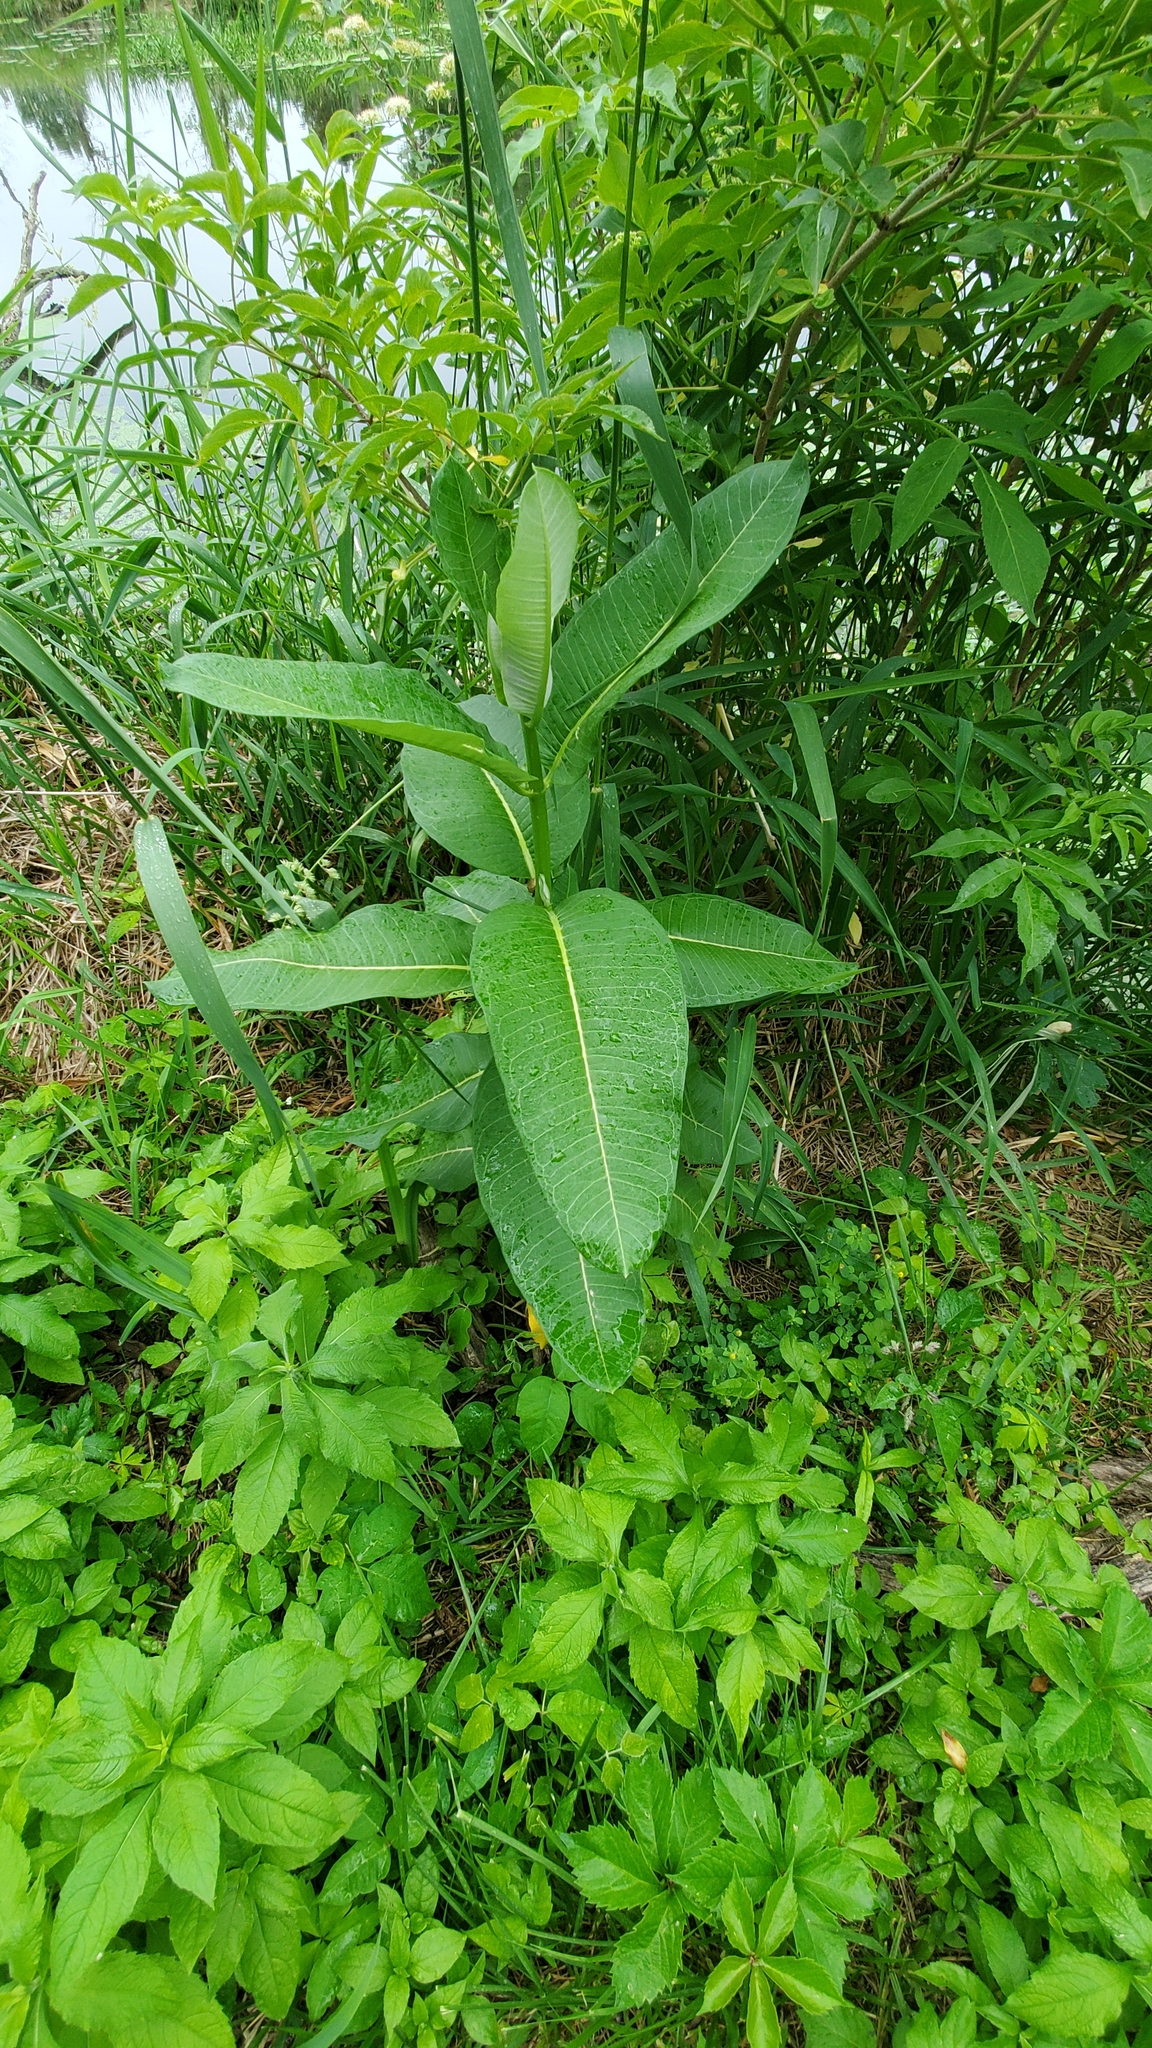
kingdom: Plantae
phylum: Tracheophyta
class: Magnoliopsida
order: Gentianales
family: Apocynaceae
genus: Asclepias
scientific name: Asclepias syriaca
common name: Common milkweed
